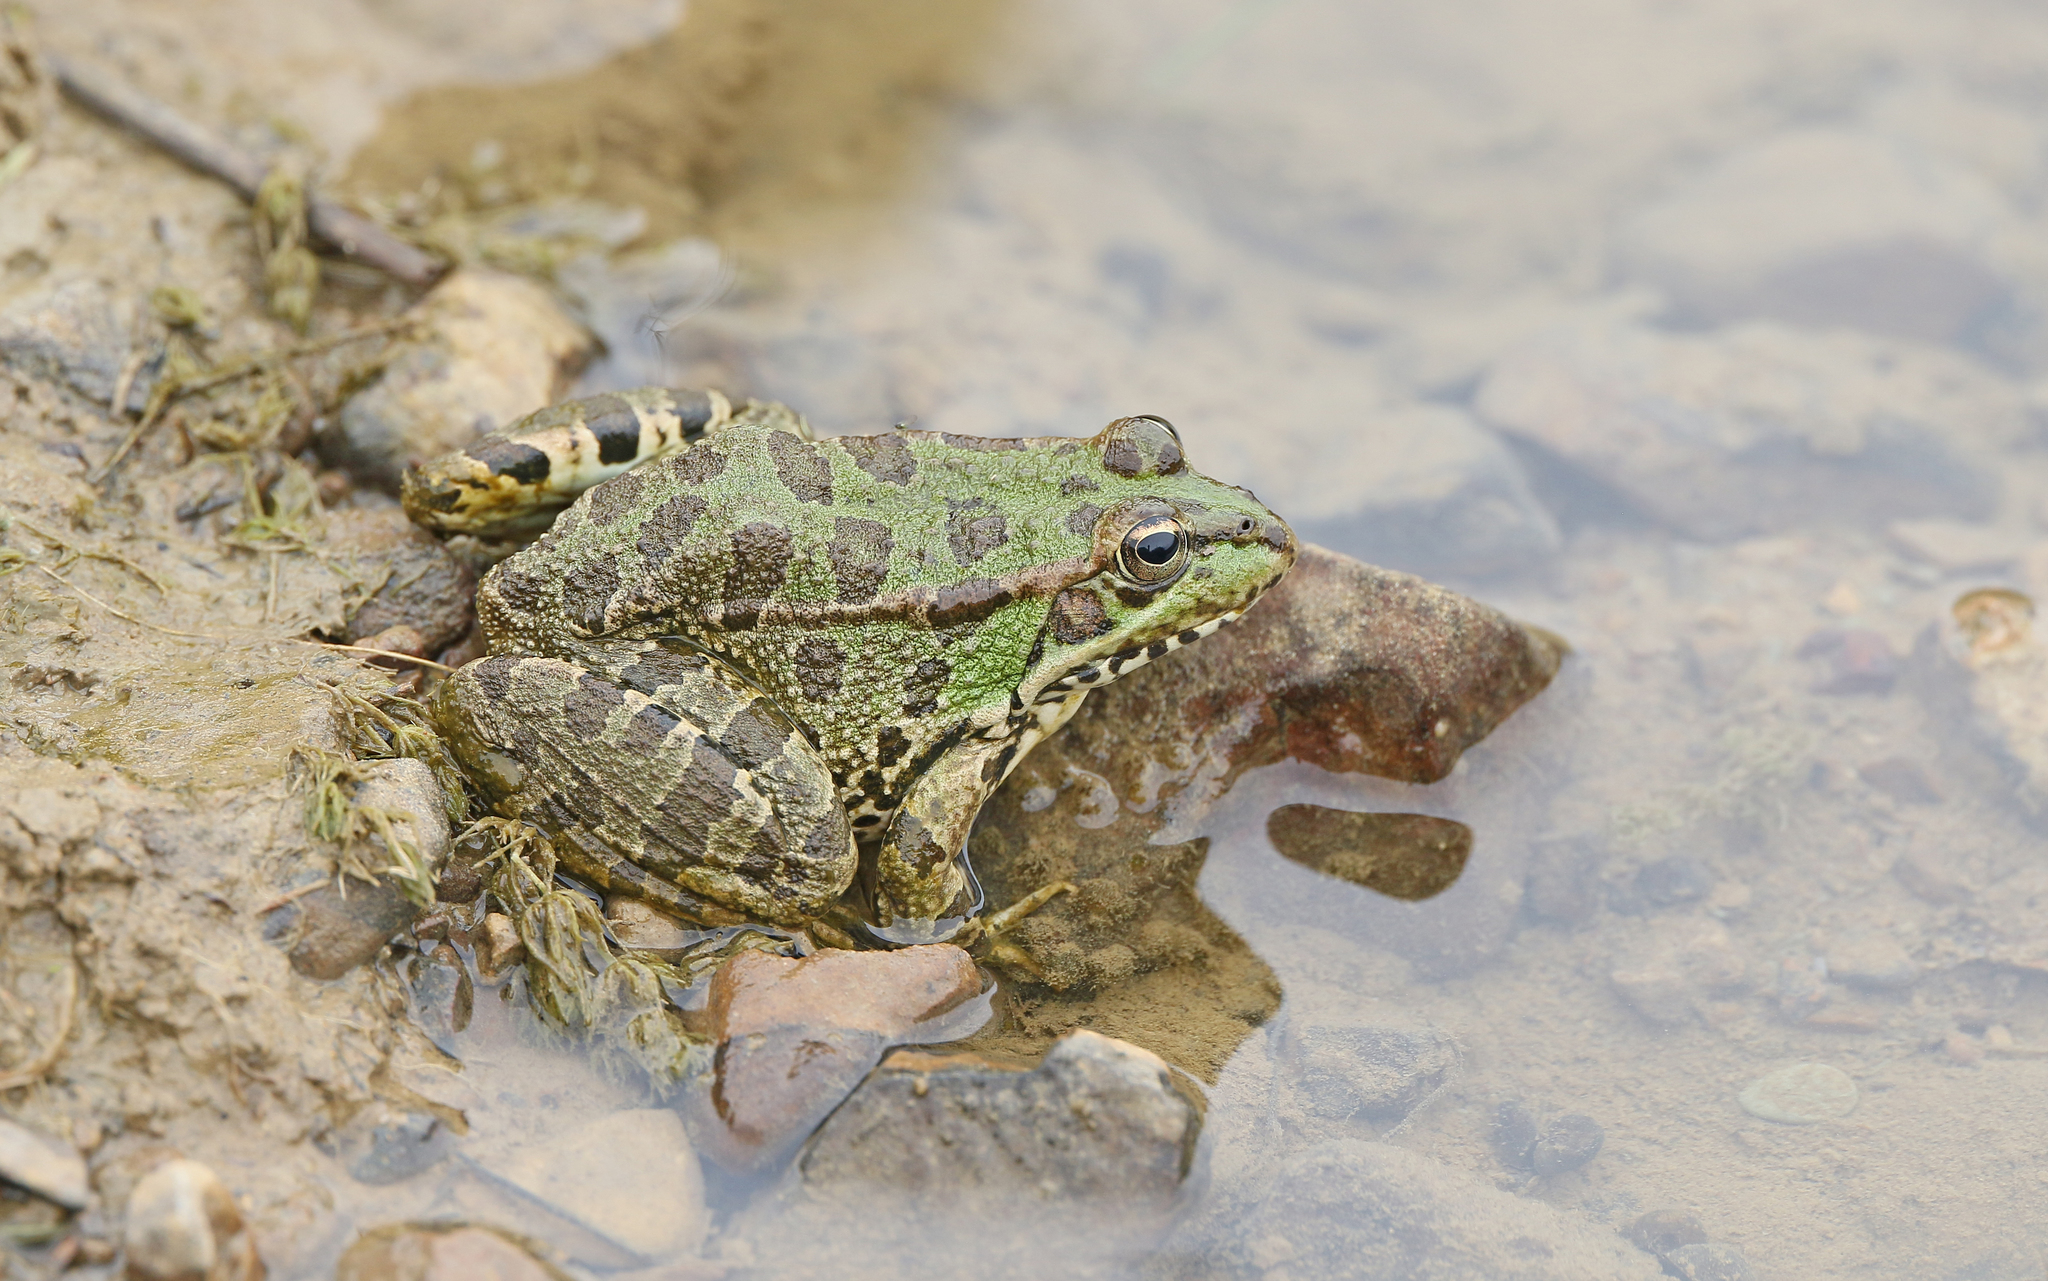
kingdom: Animalia
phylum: Chordata
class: Amphibia
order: Anura
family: Ranidae
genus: Pelophylax
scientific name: Pelophylax perezi
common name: Perez's frog
